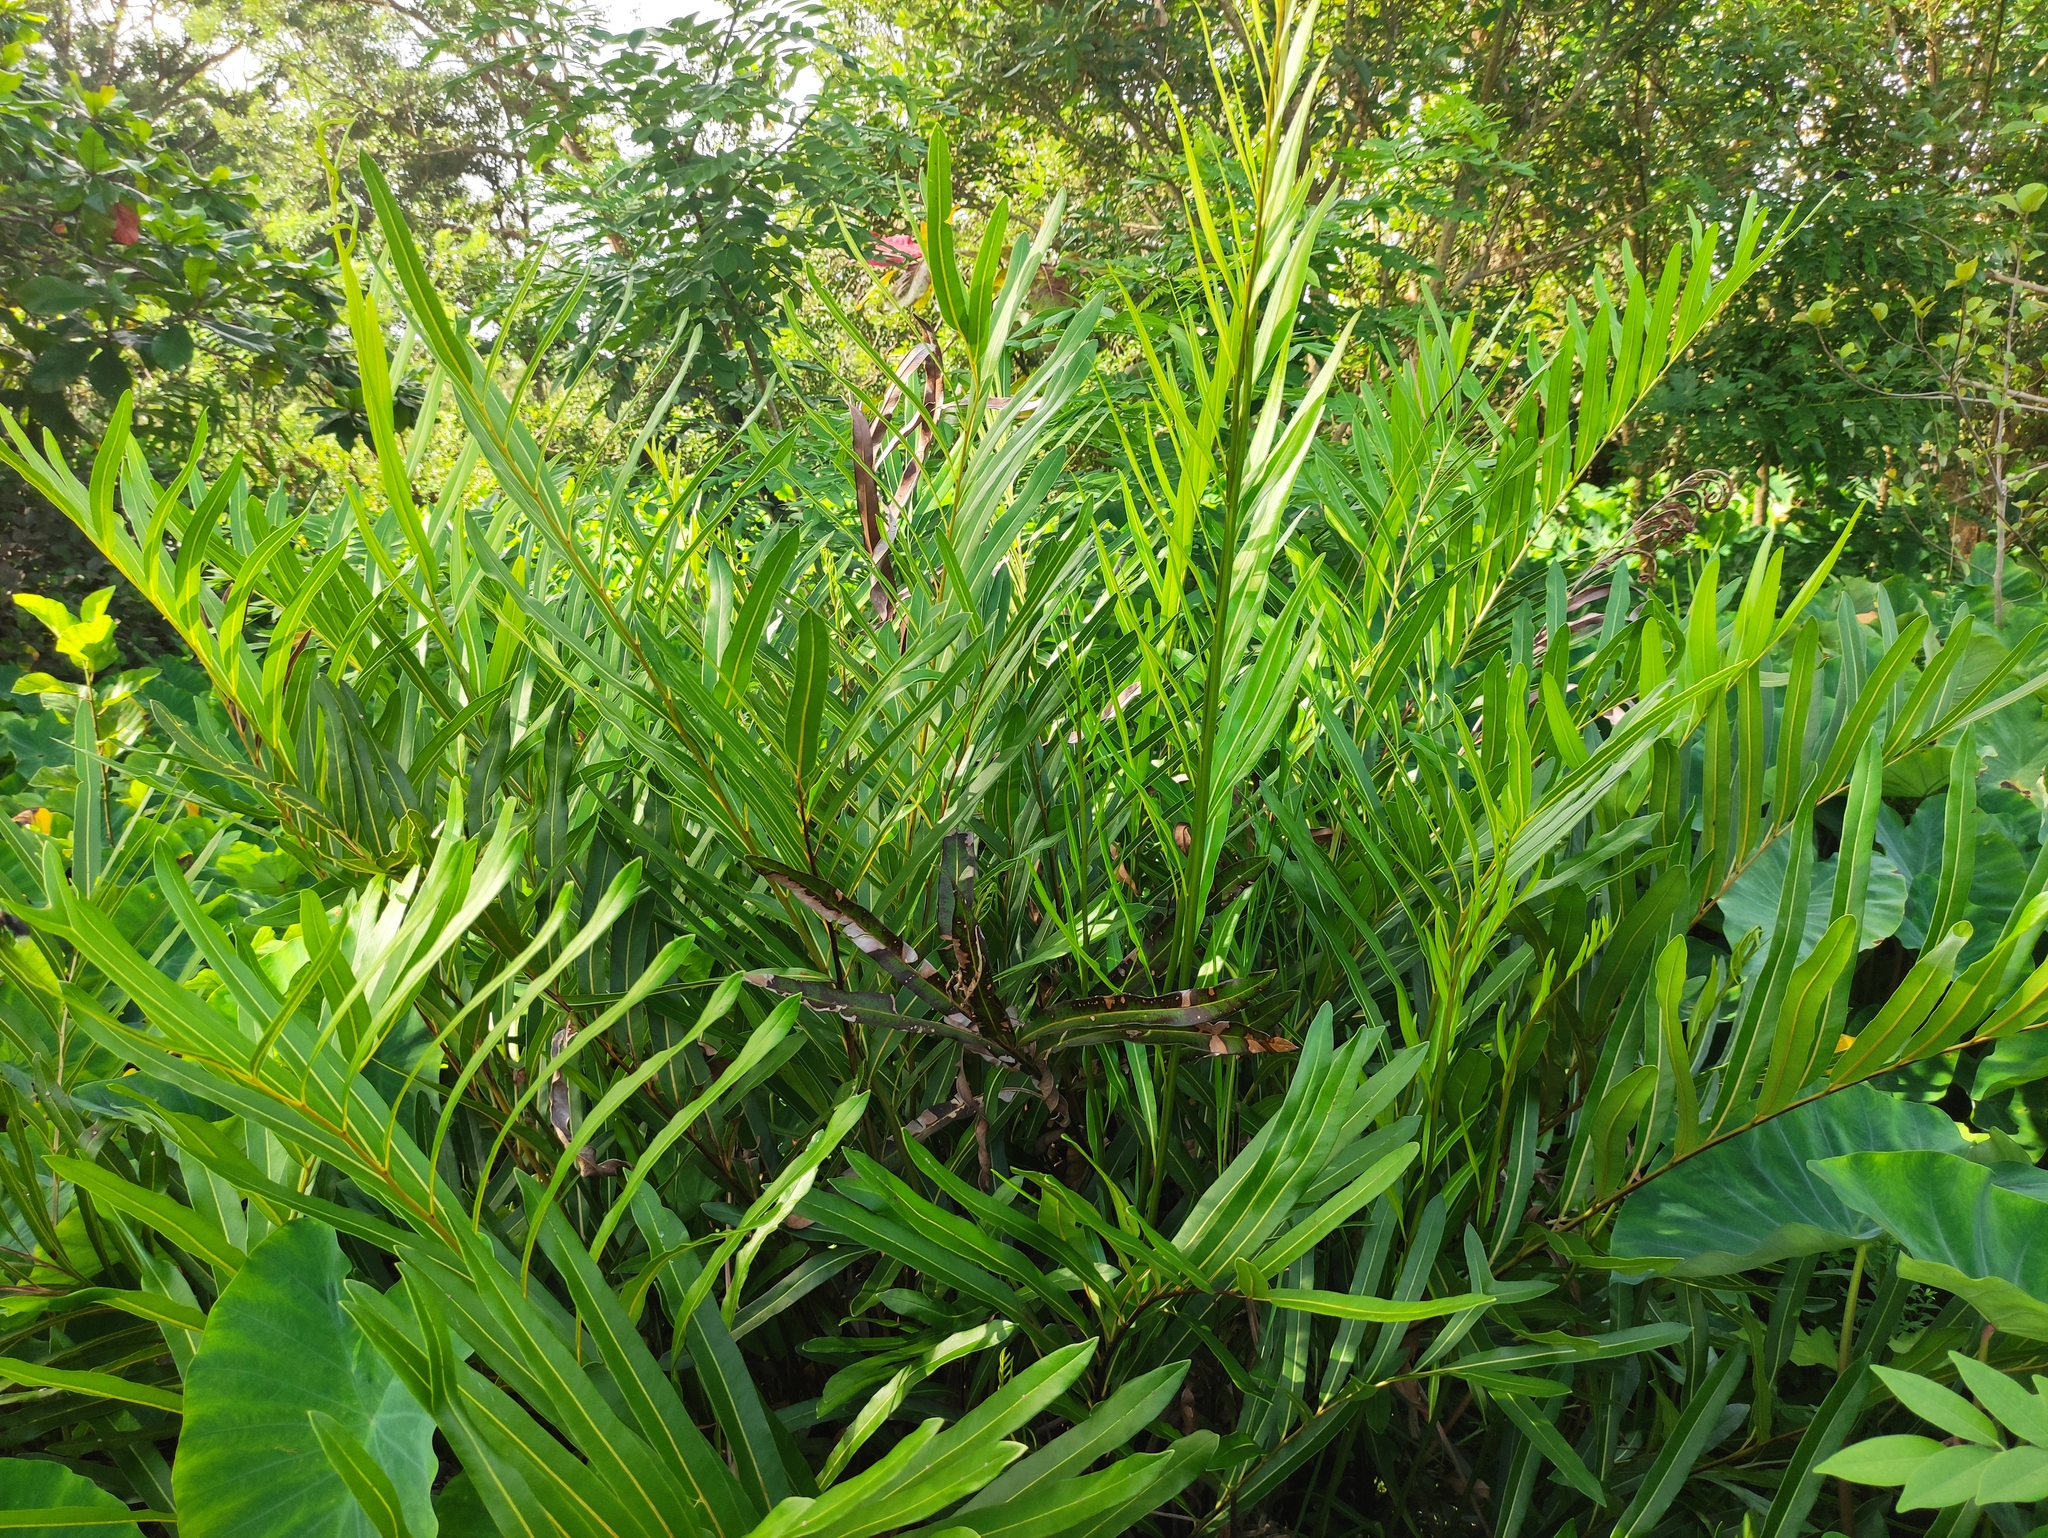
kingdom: Plantae
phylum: Tracheophyta
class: Polypodiopsida
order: Polypodiales
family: Pteridaceae
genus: Acrostichum
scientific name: Acrostichum aureum
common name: Leather fern
